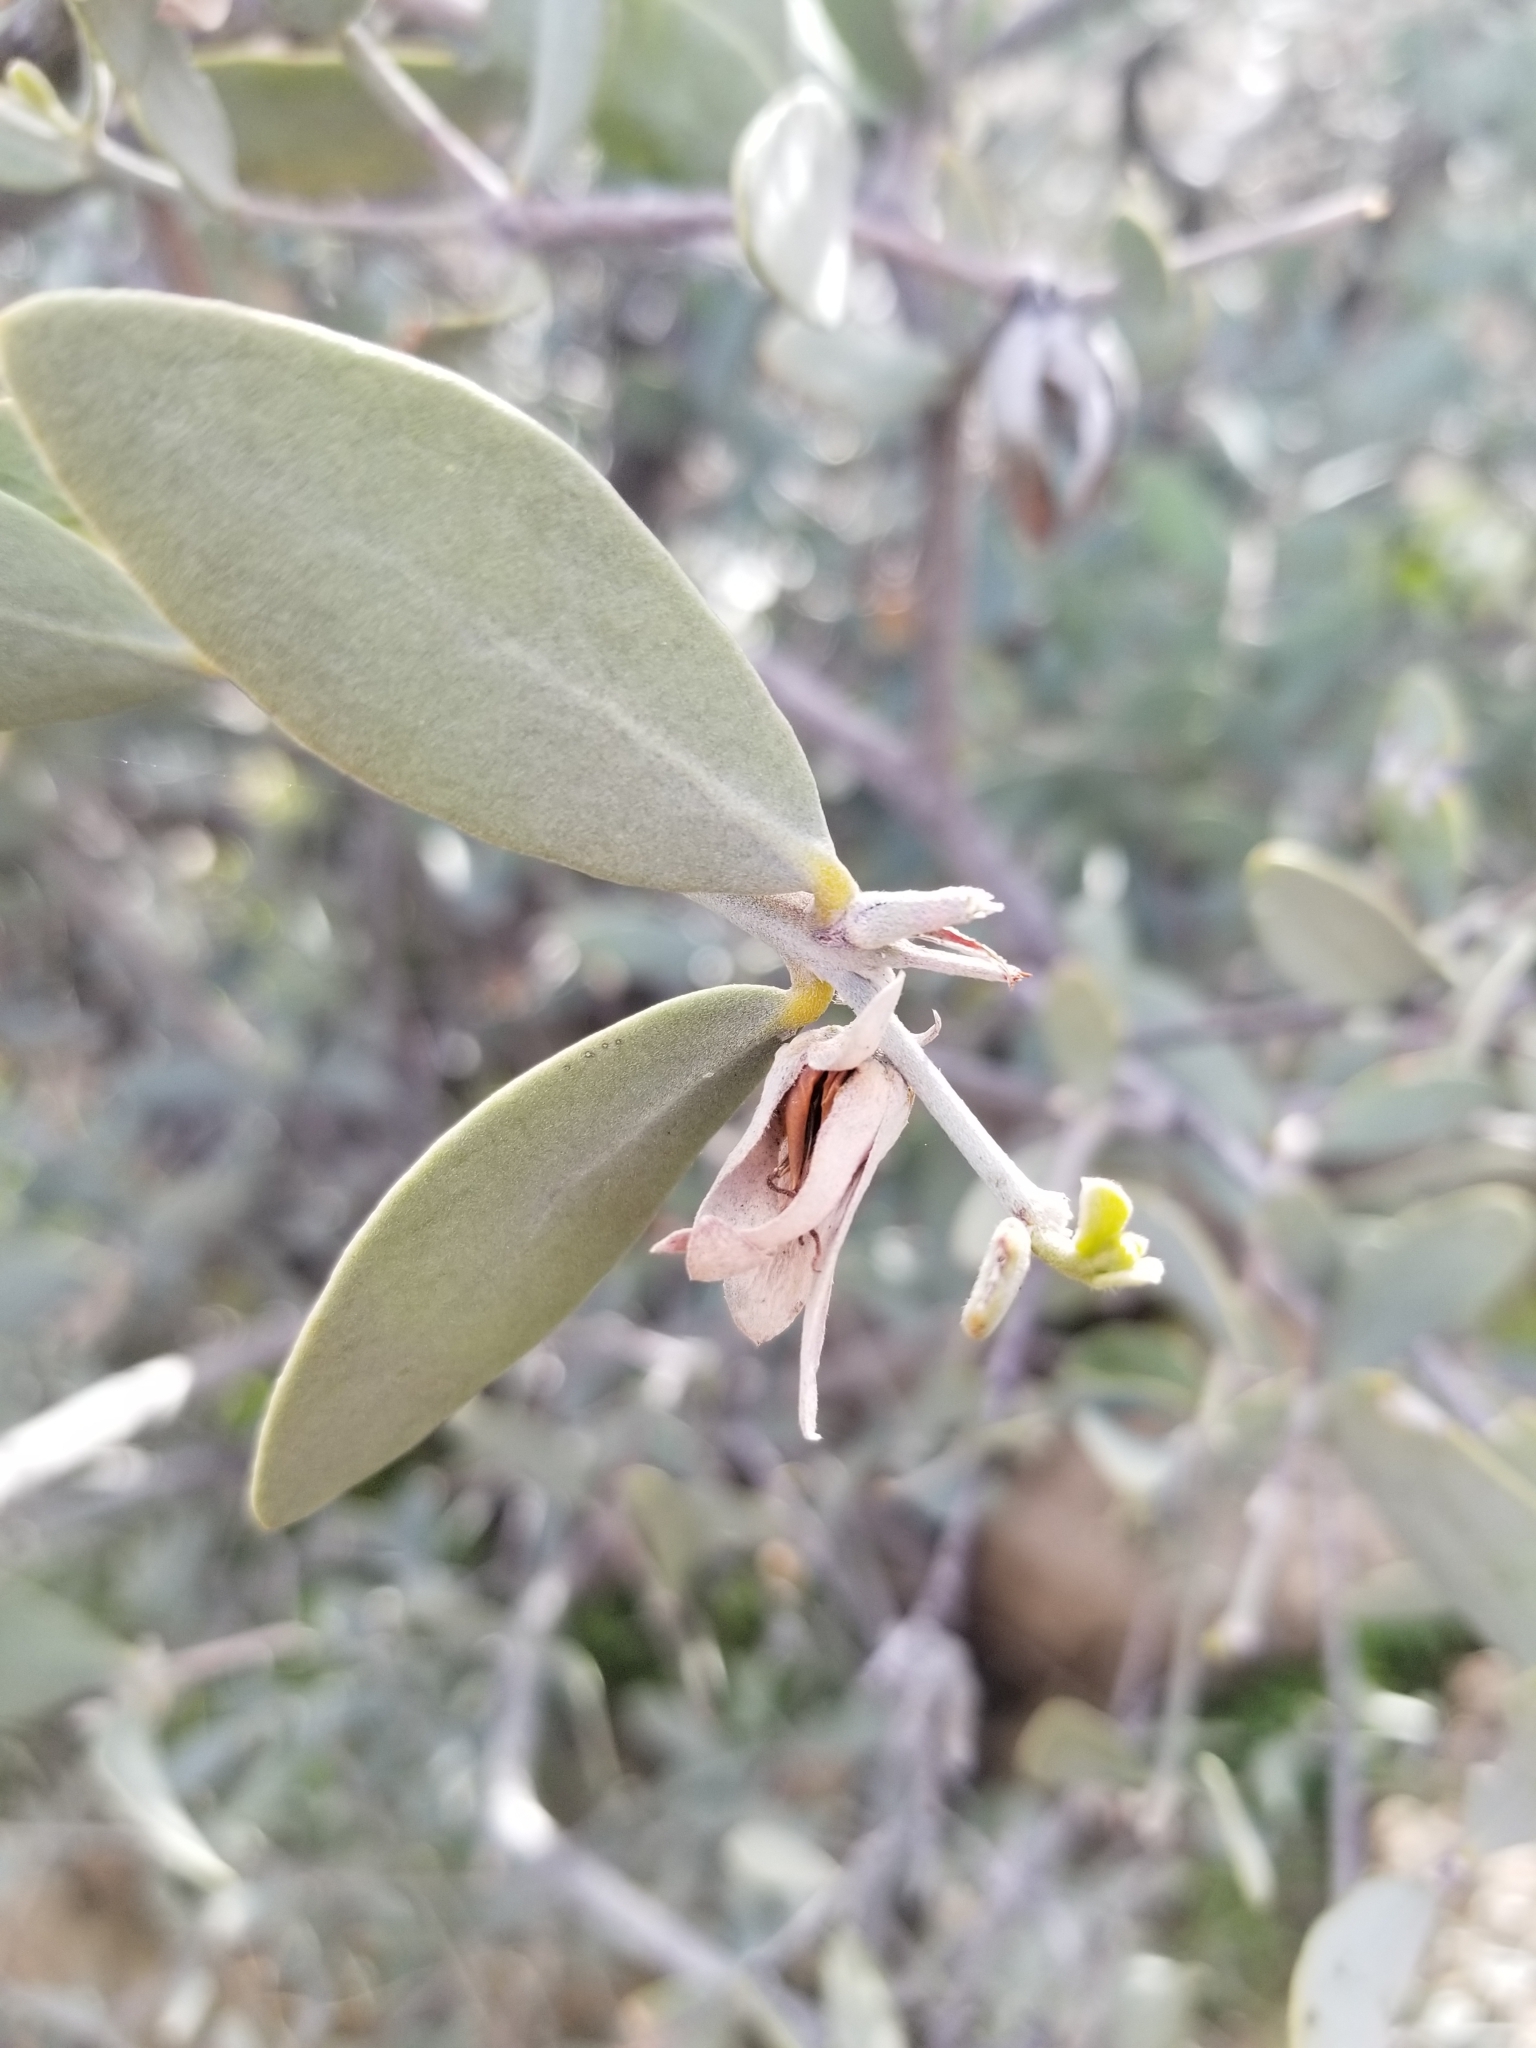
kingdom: Plantae
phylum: Tracheophyta
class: Magnoliopsida
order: Caryophyllales
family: Simmondsiaceae
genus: Simmondsia
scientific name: Simmondsia chinensis
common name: Jojoba
